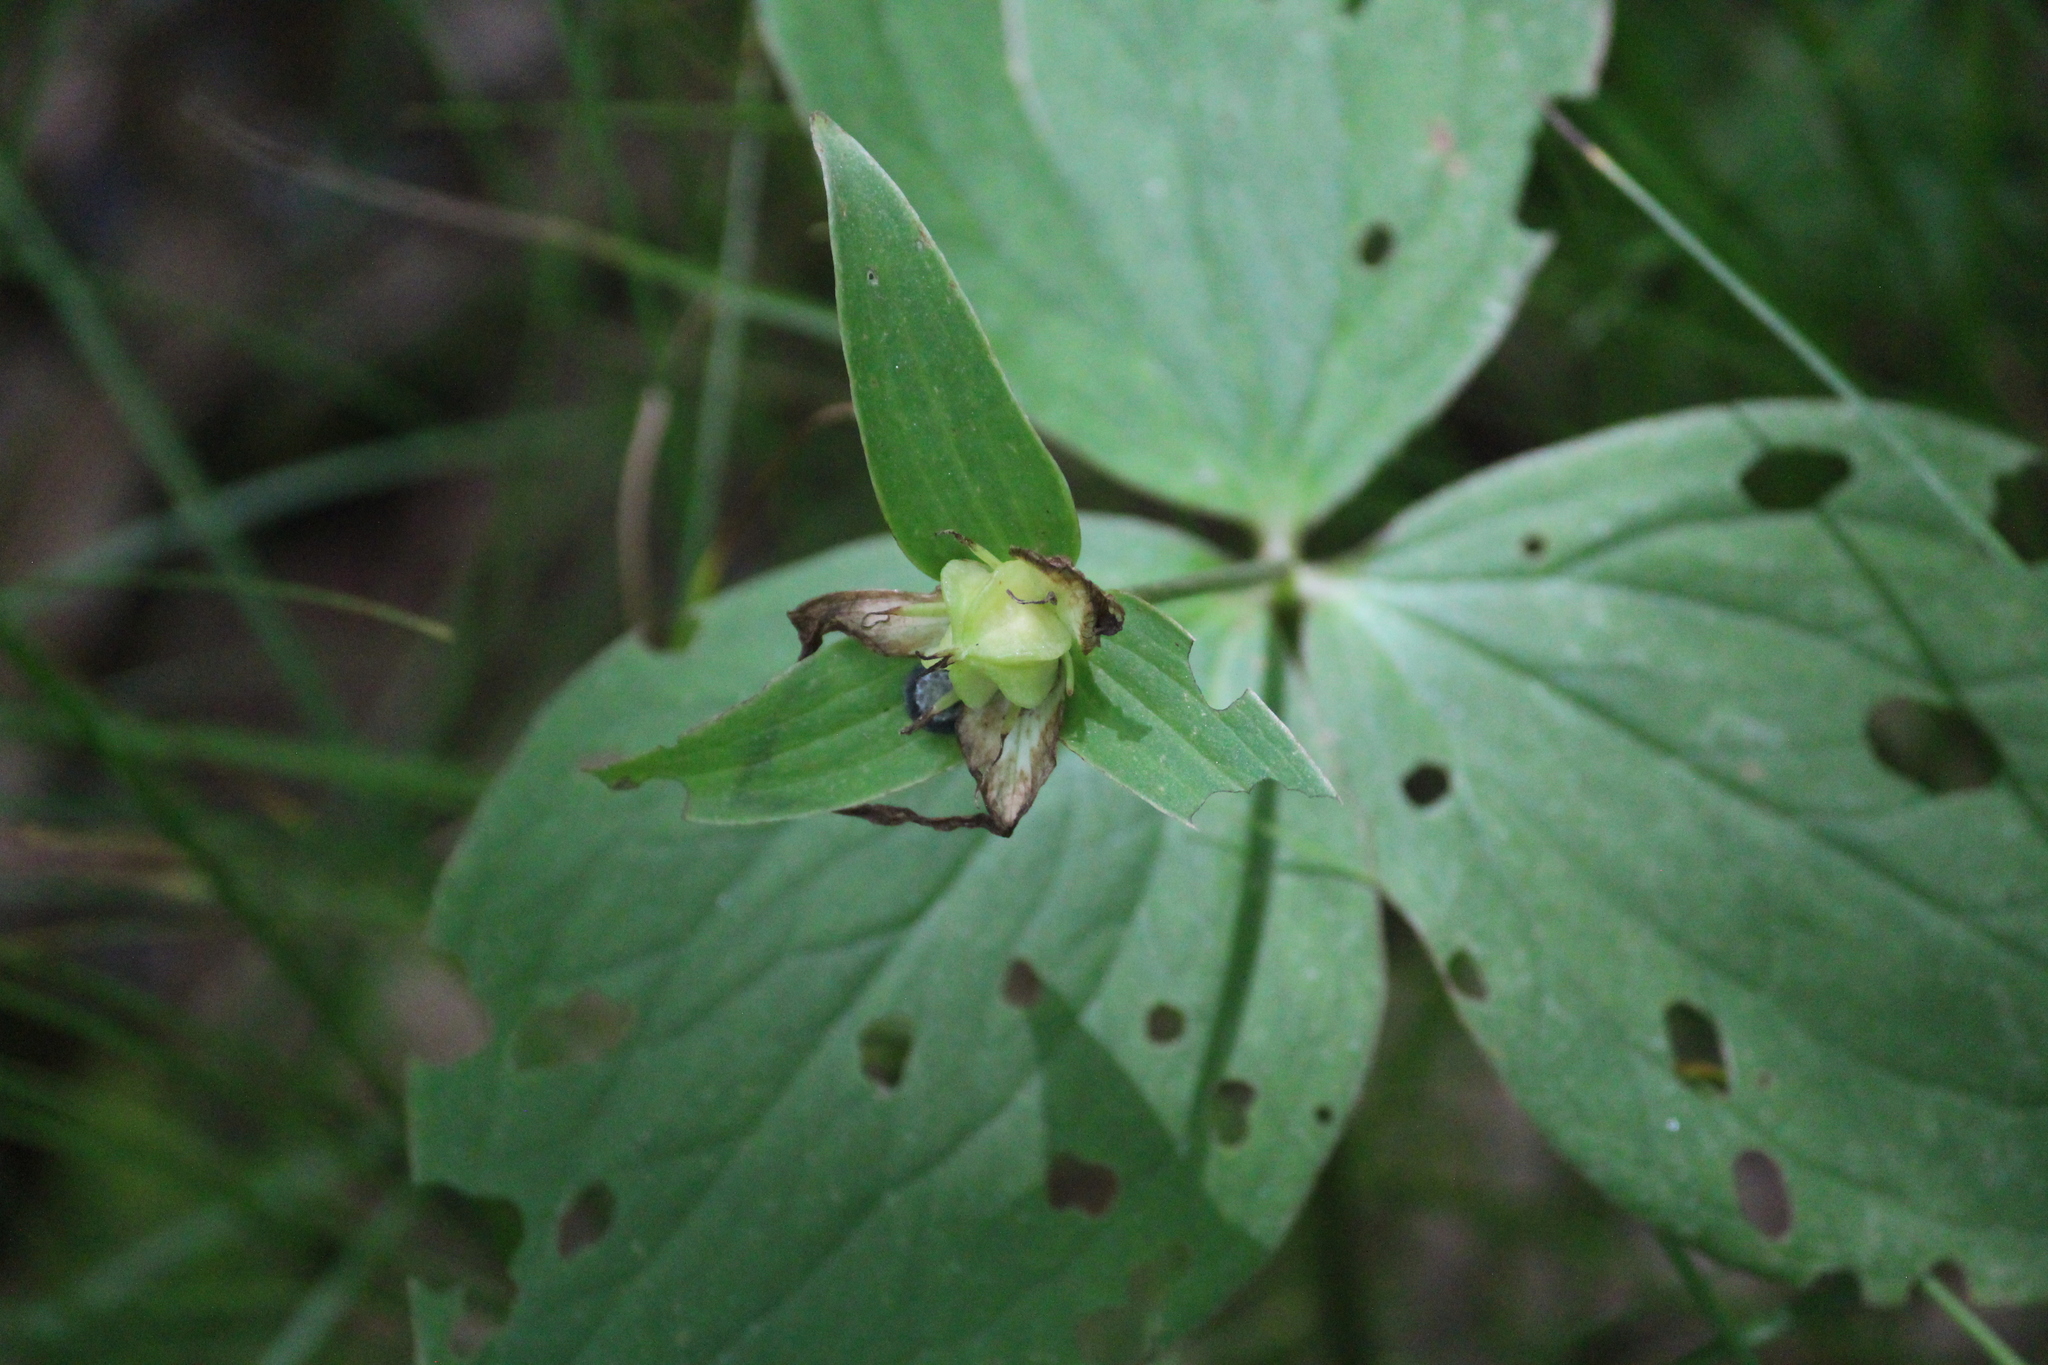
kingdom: Plantae
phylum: Tracheophyta
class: Liliopsida
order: Liliales
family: Melanthiaceae
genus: Trillium
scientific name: Trillium grandiflorum
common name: Great white trillium
